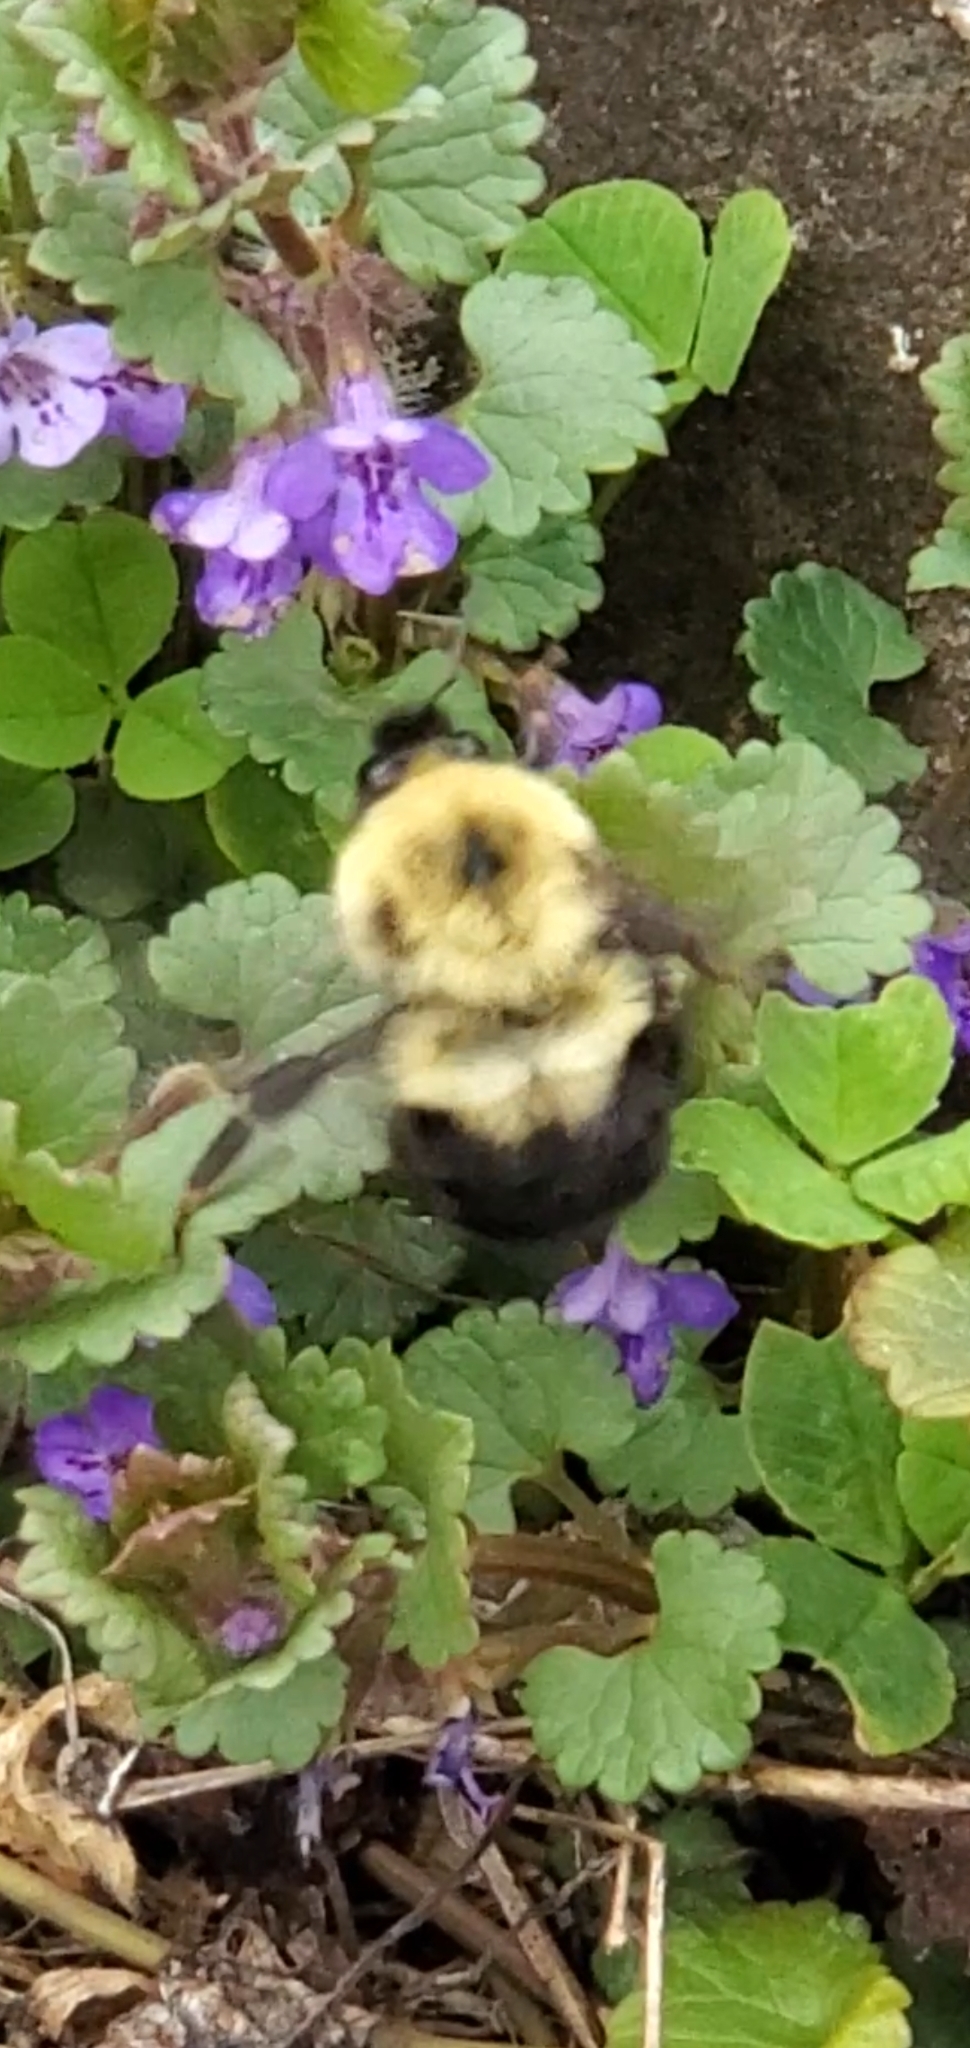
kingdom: Animalia
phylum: Arthropoda
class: Insecta
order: Hymenoptera
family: Apidae
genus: Bombus
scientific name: Bombus bimaculatus
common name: Two-spotted bumble bee
